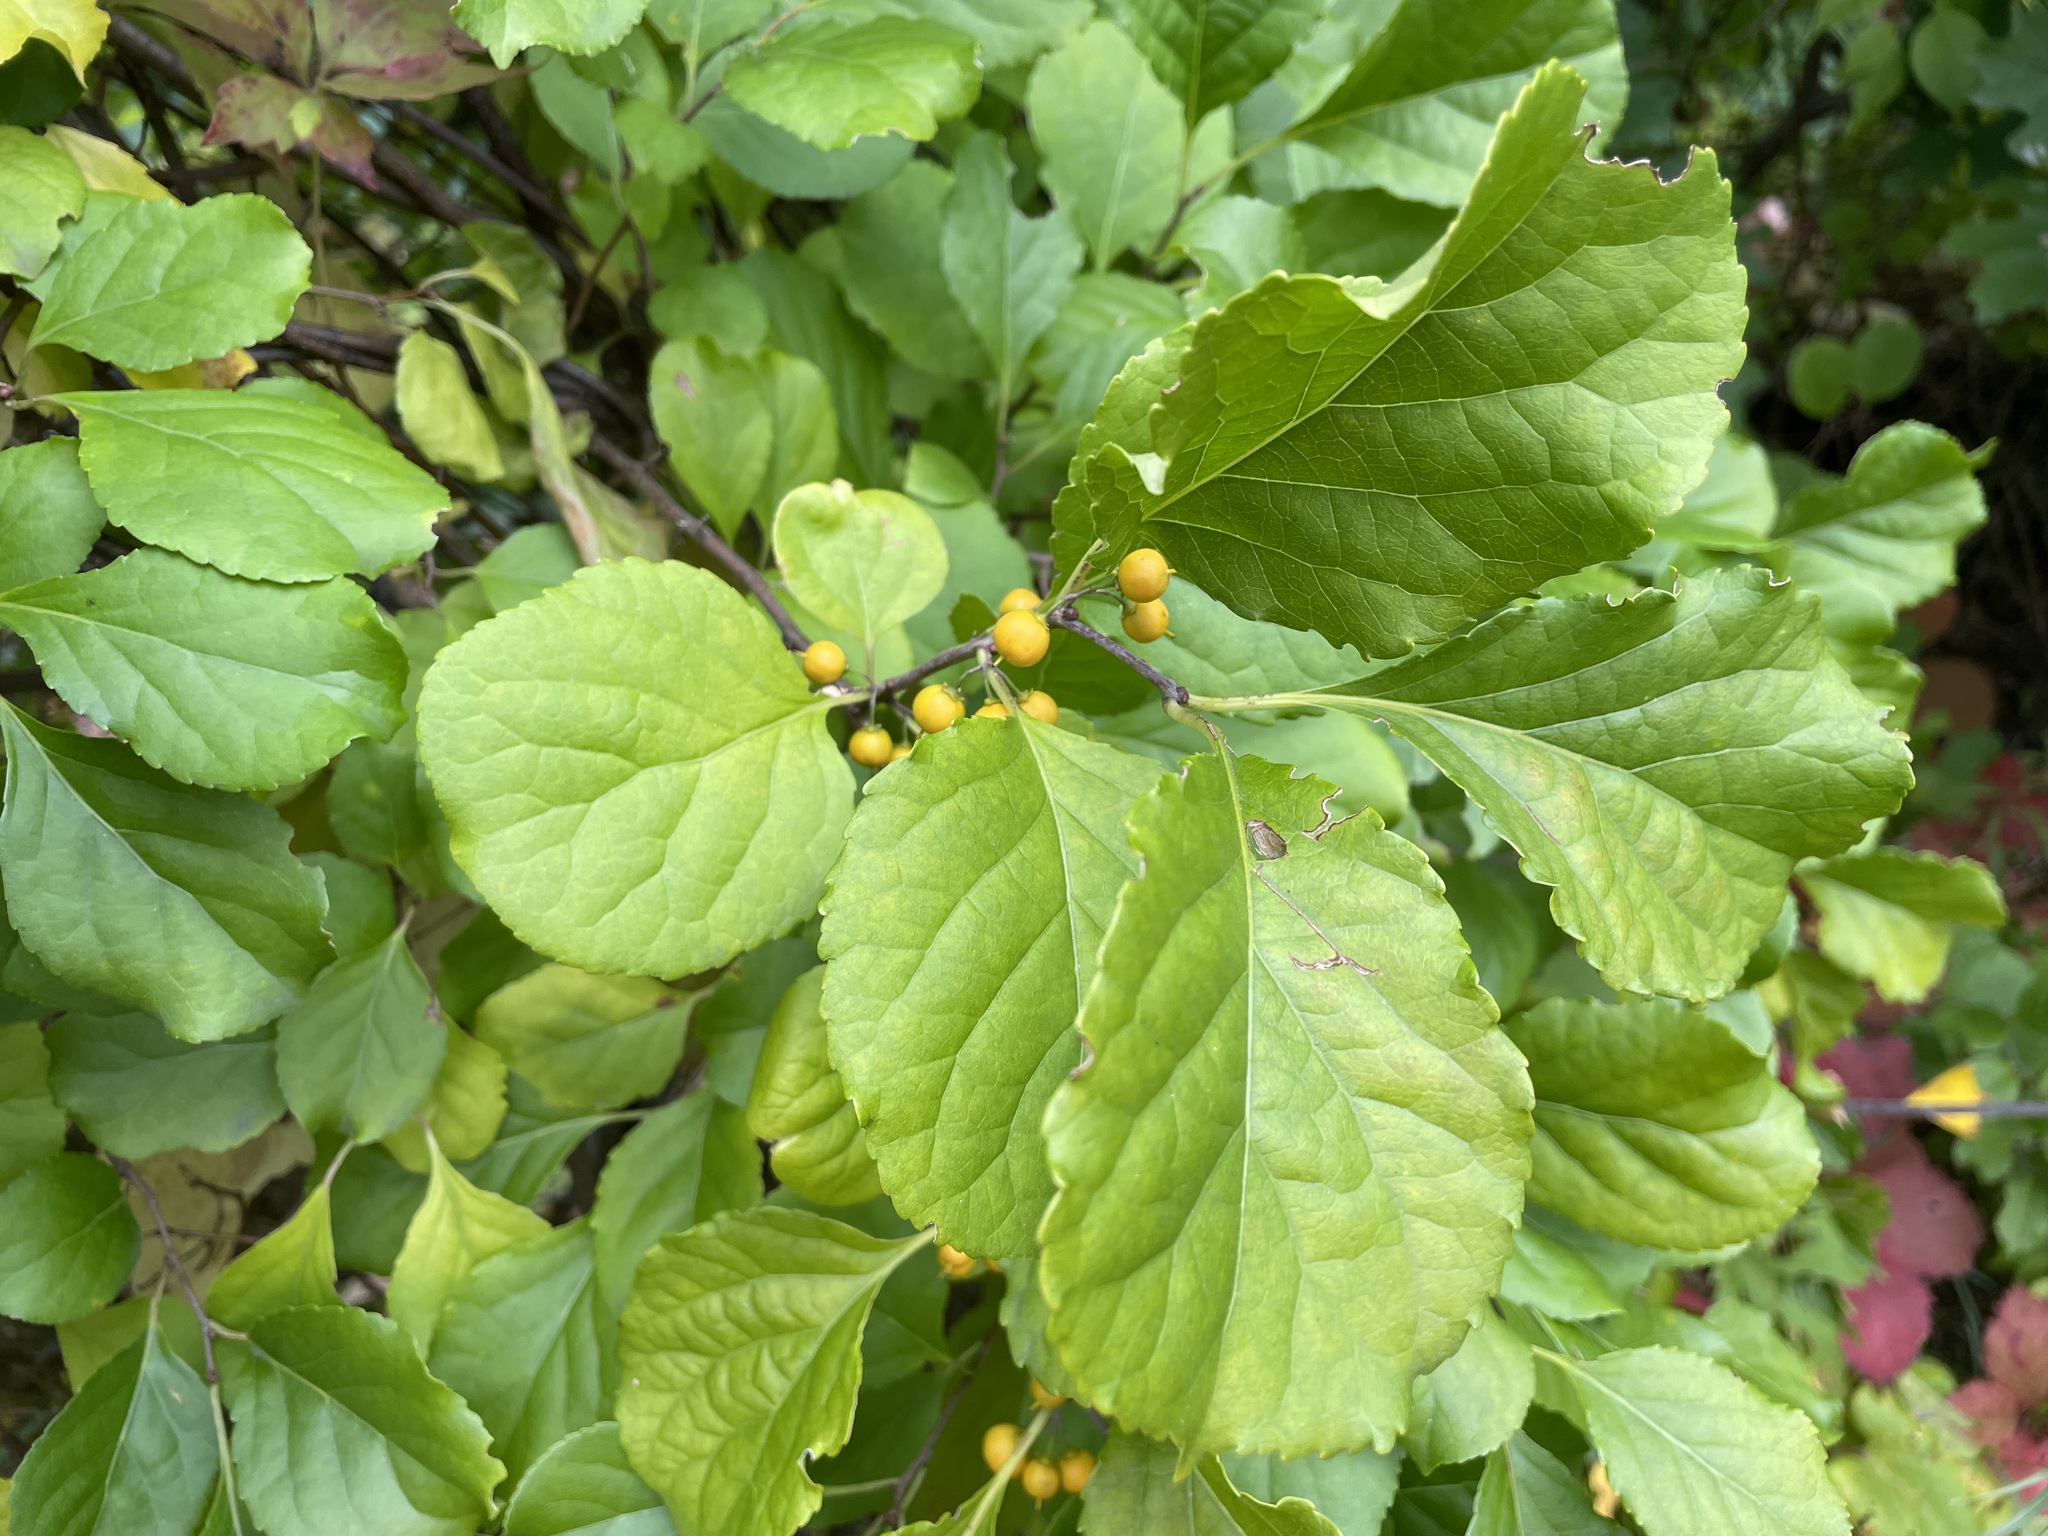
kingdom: Plantae
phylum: Tracheophyta
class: Magnoliopsida
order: Celastrales
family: Celastraceae
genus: Celastrus
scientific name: Celastrus orbiculatus
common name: Oriental bittersweet
